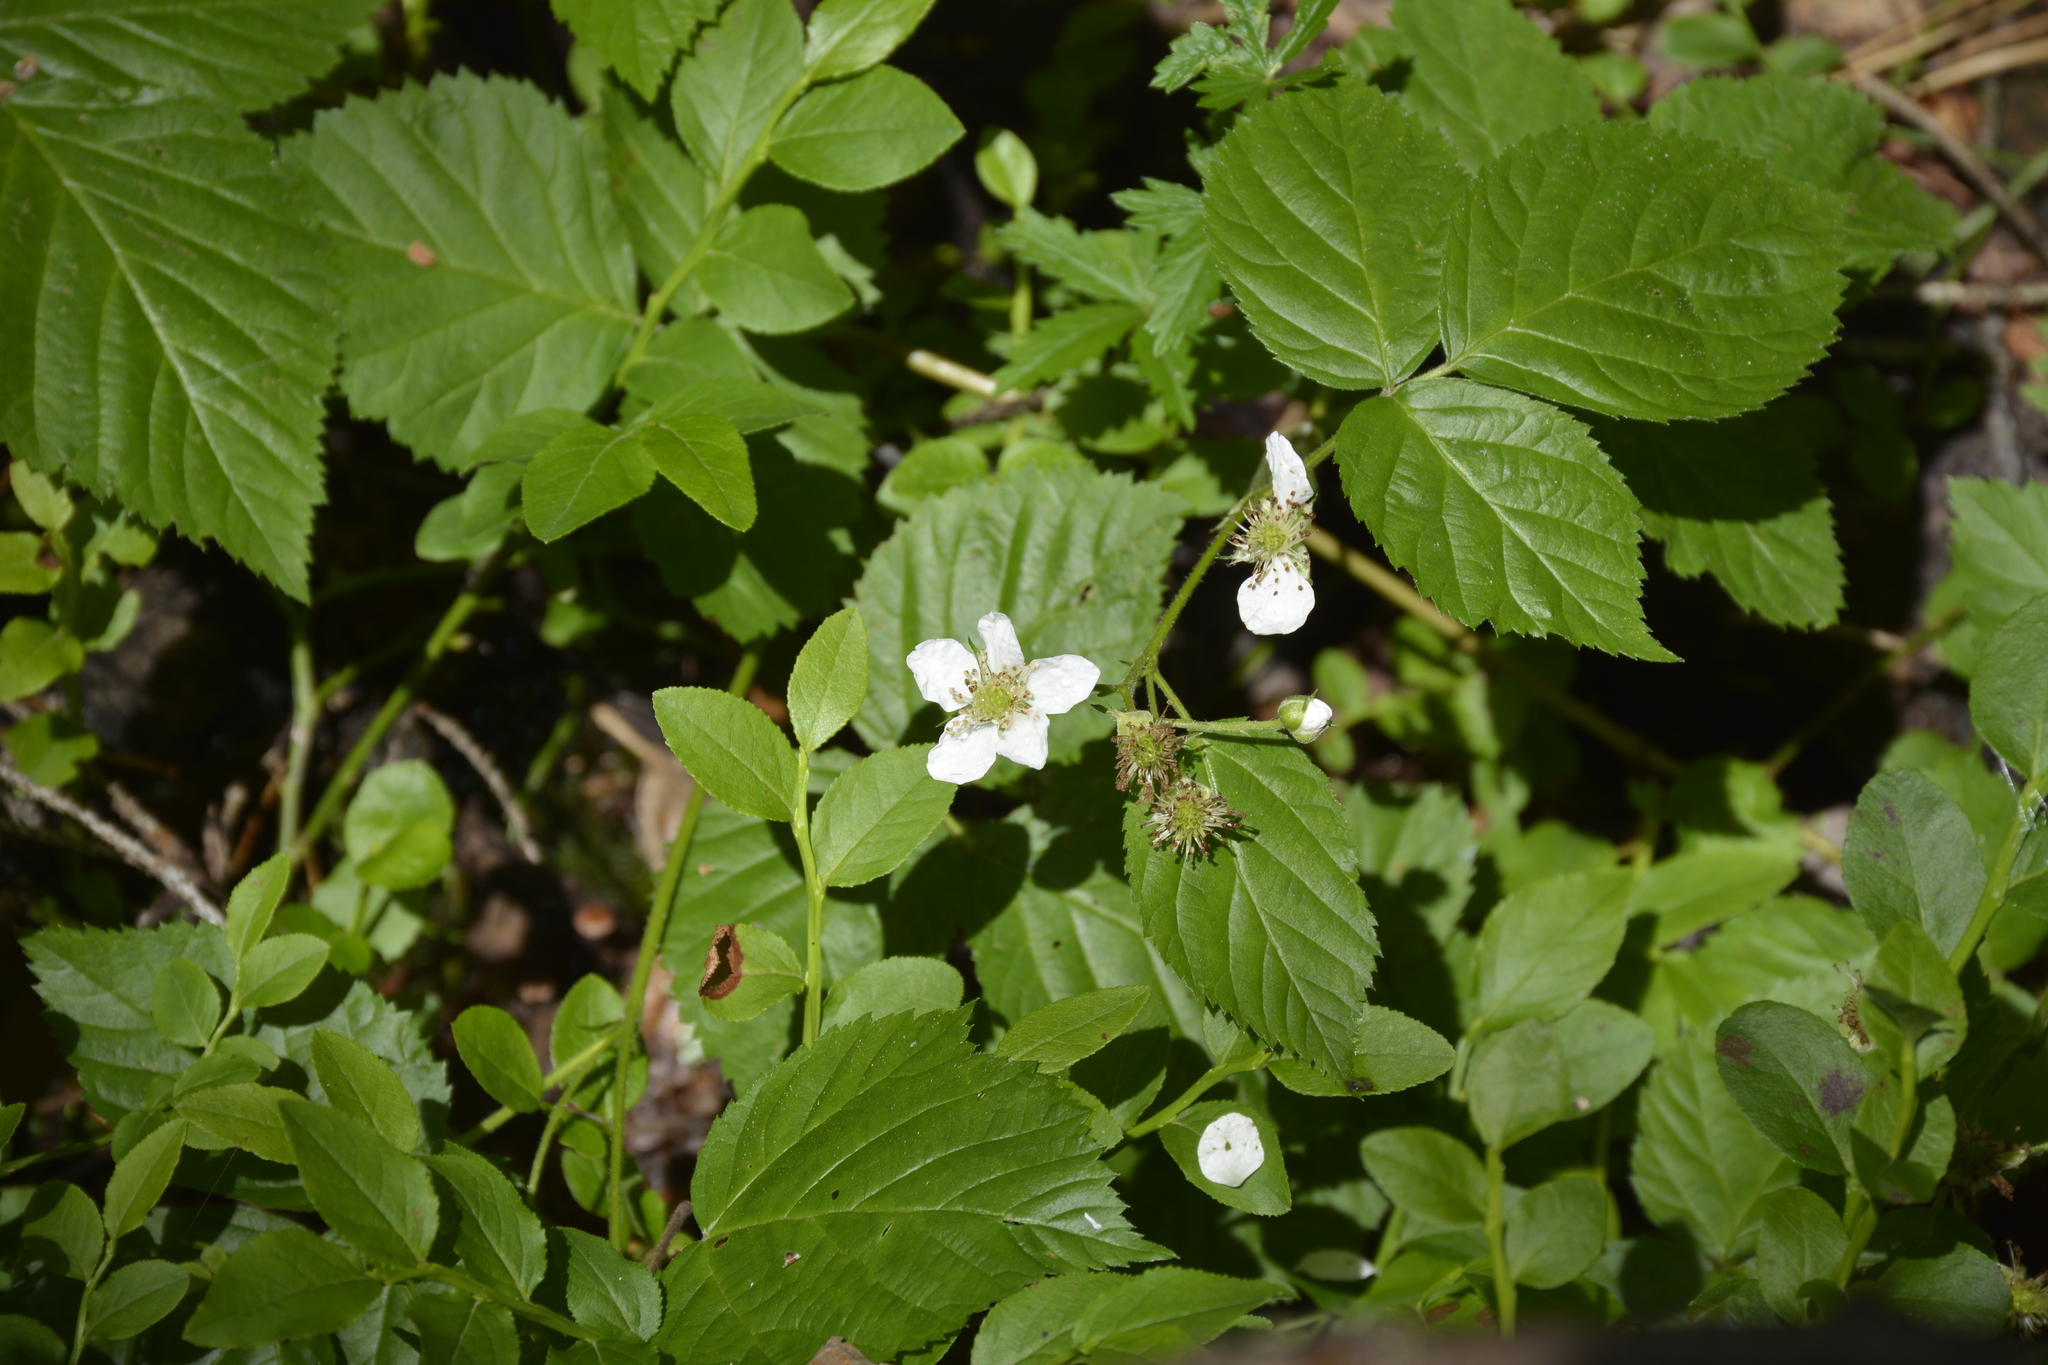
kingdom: Plantae
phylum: Tracheophyta
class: Magnoliopsida
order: Rosales
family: Rosaceae
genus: Rubus
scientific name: Rubus polonicus
